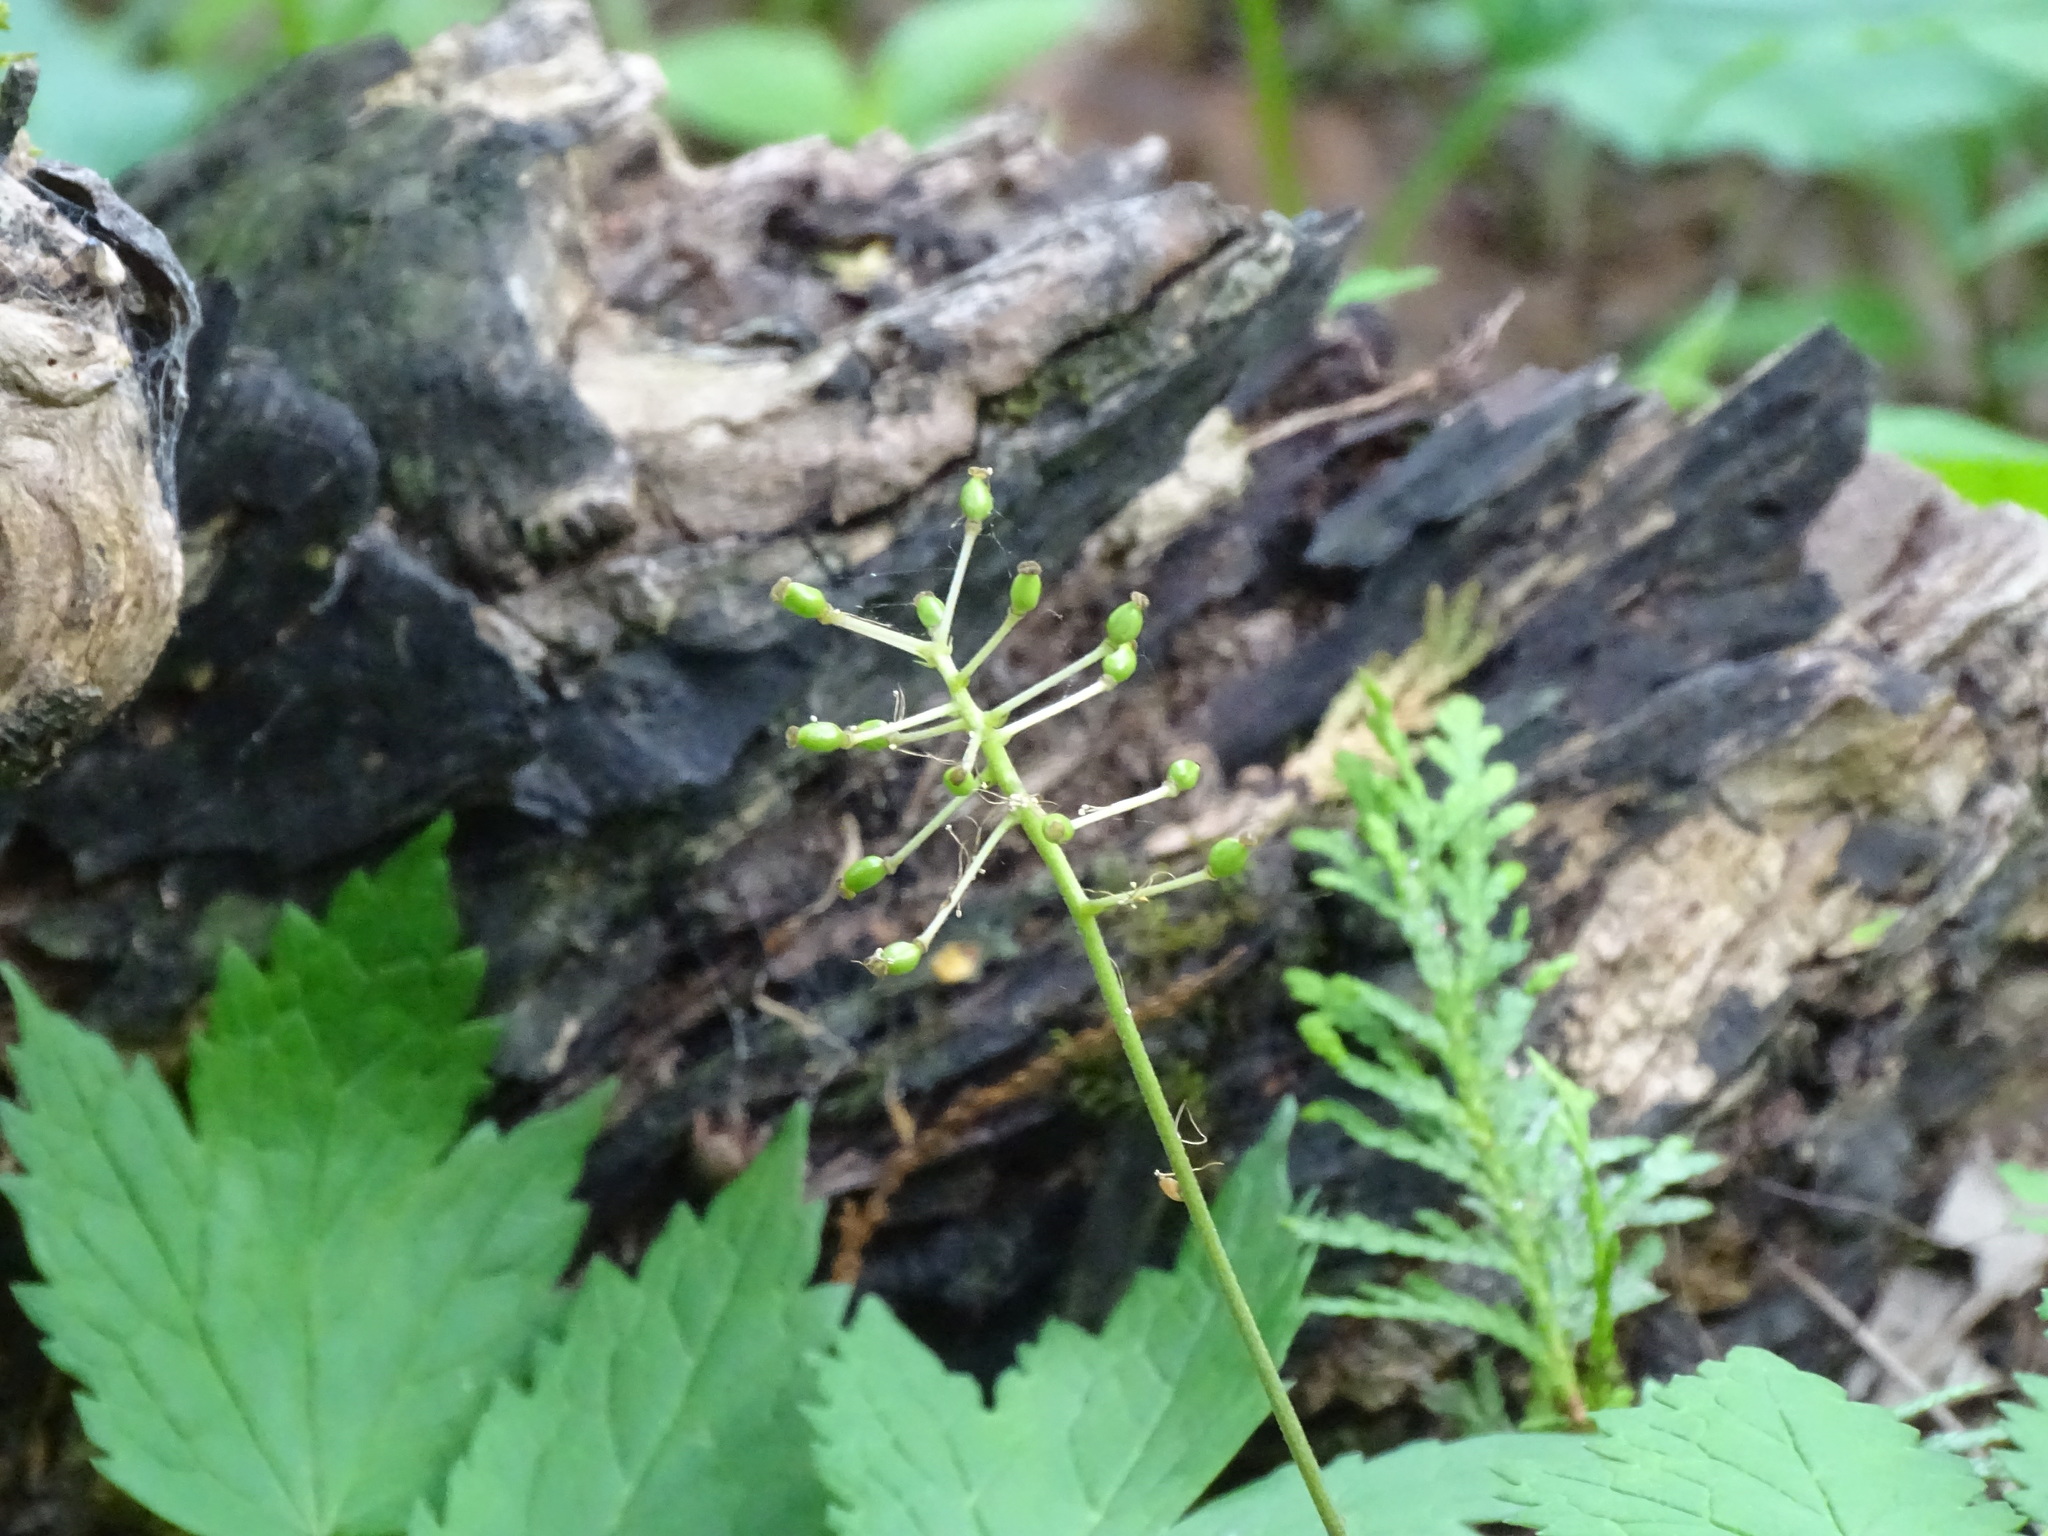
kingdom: Plantae
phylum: Tracheophyta
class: Magnoliopsida
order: Ranunculales
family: Ranunculaceae
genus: Actaea
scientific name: Actaea rubra
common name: Red baneberry
